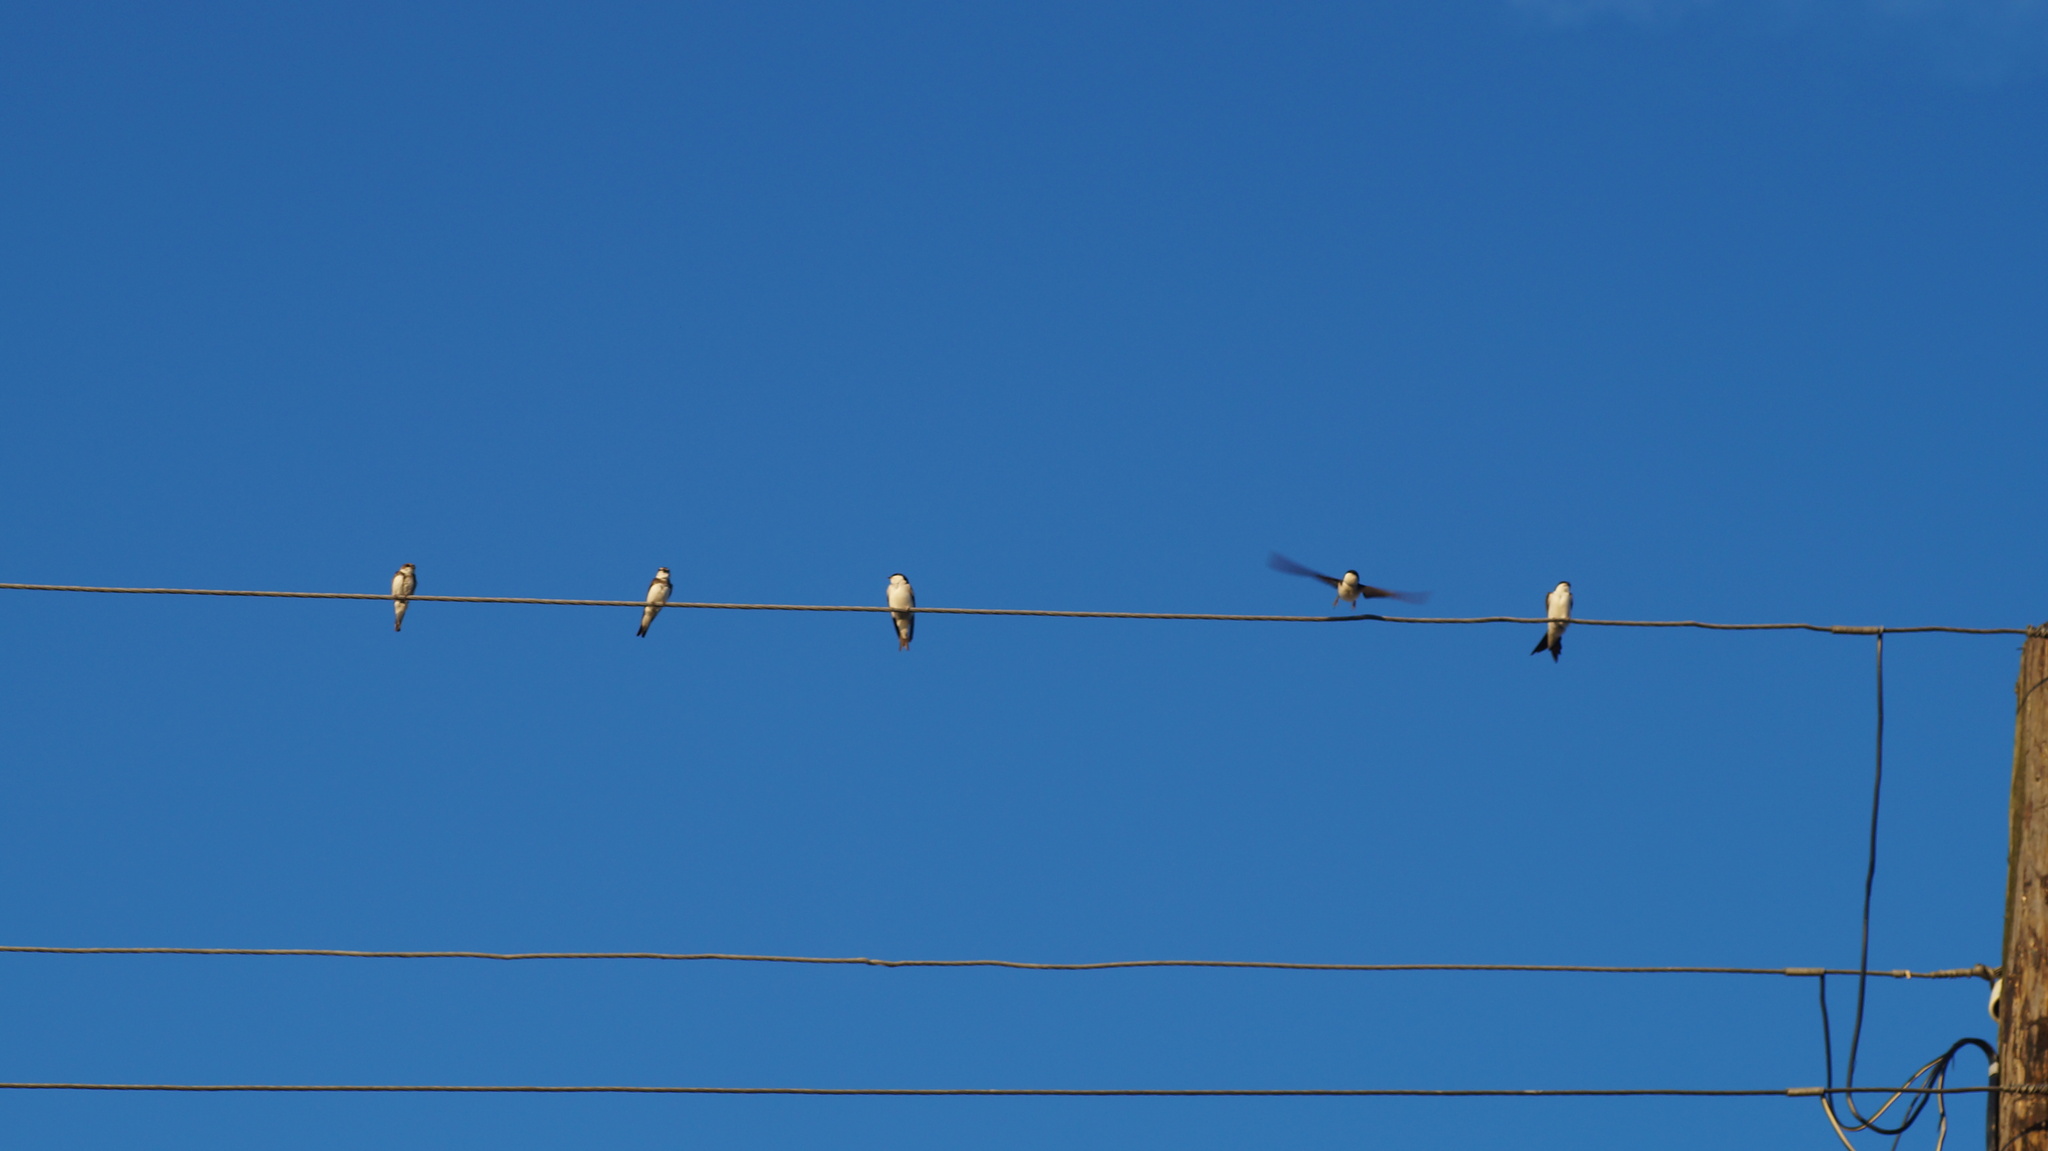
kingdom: Animalia
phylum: Chordata
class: Aves
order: Passeriformes
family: Hirundinidae
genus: Riparia
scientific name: Riparia riparia
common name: Sand martin
